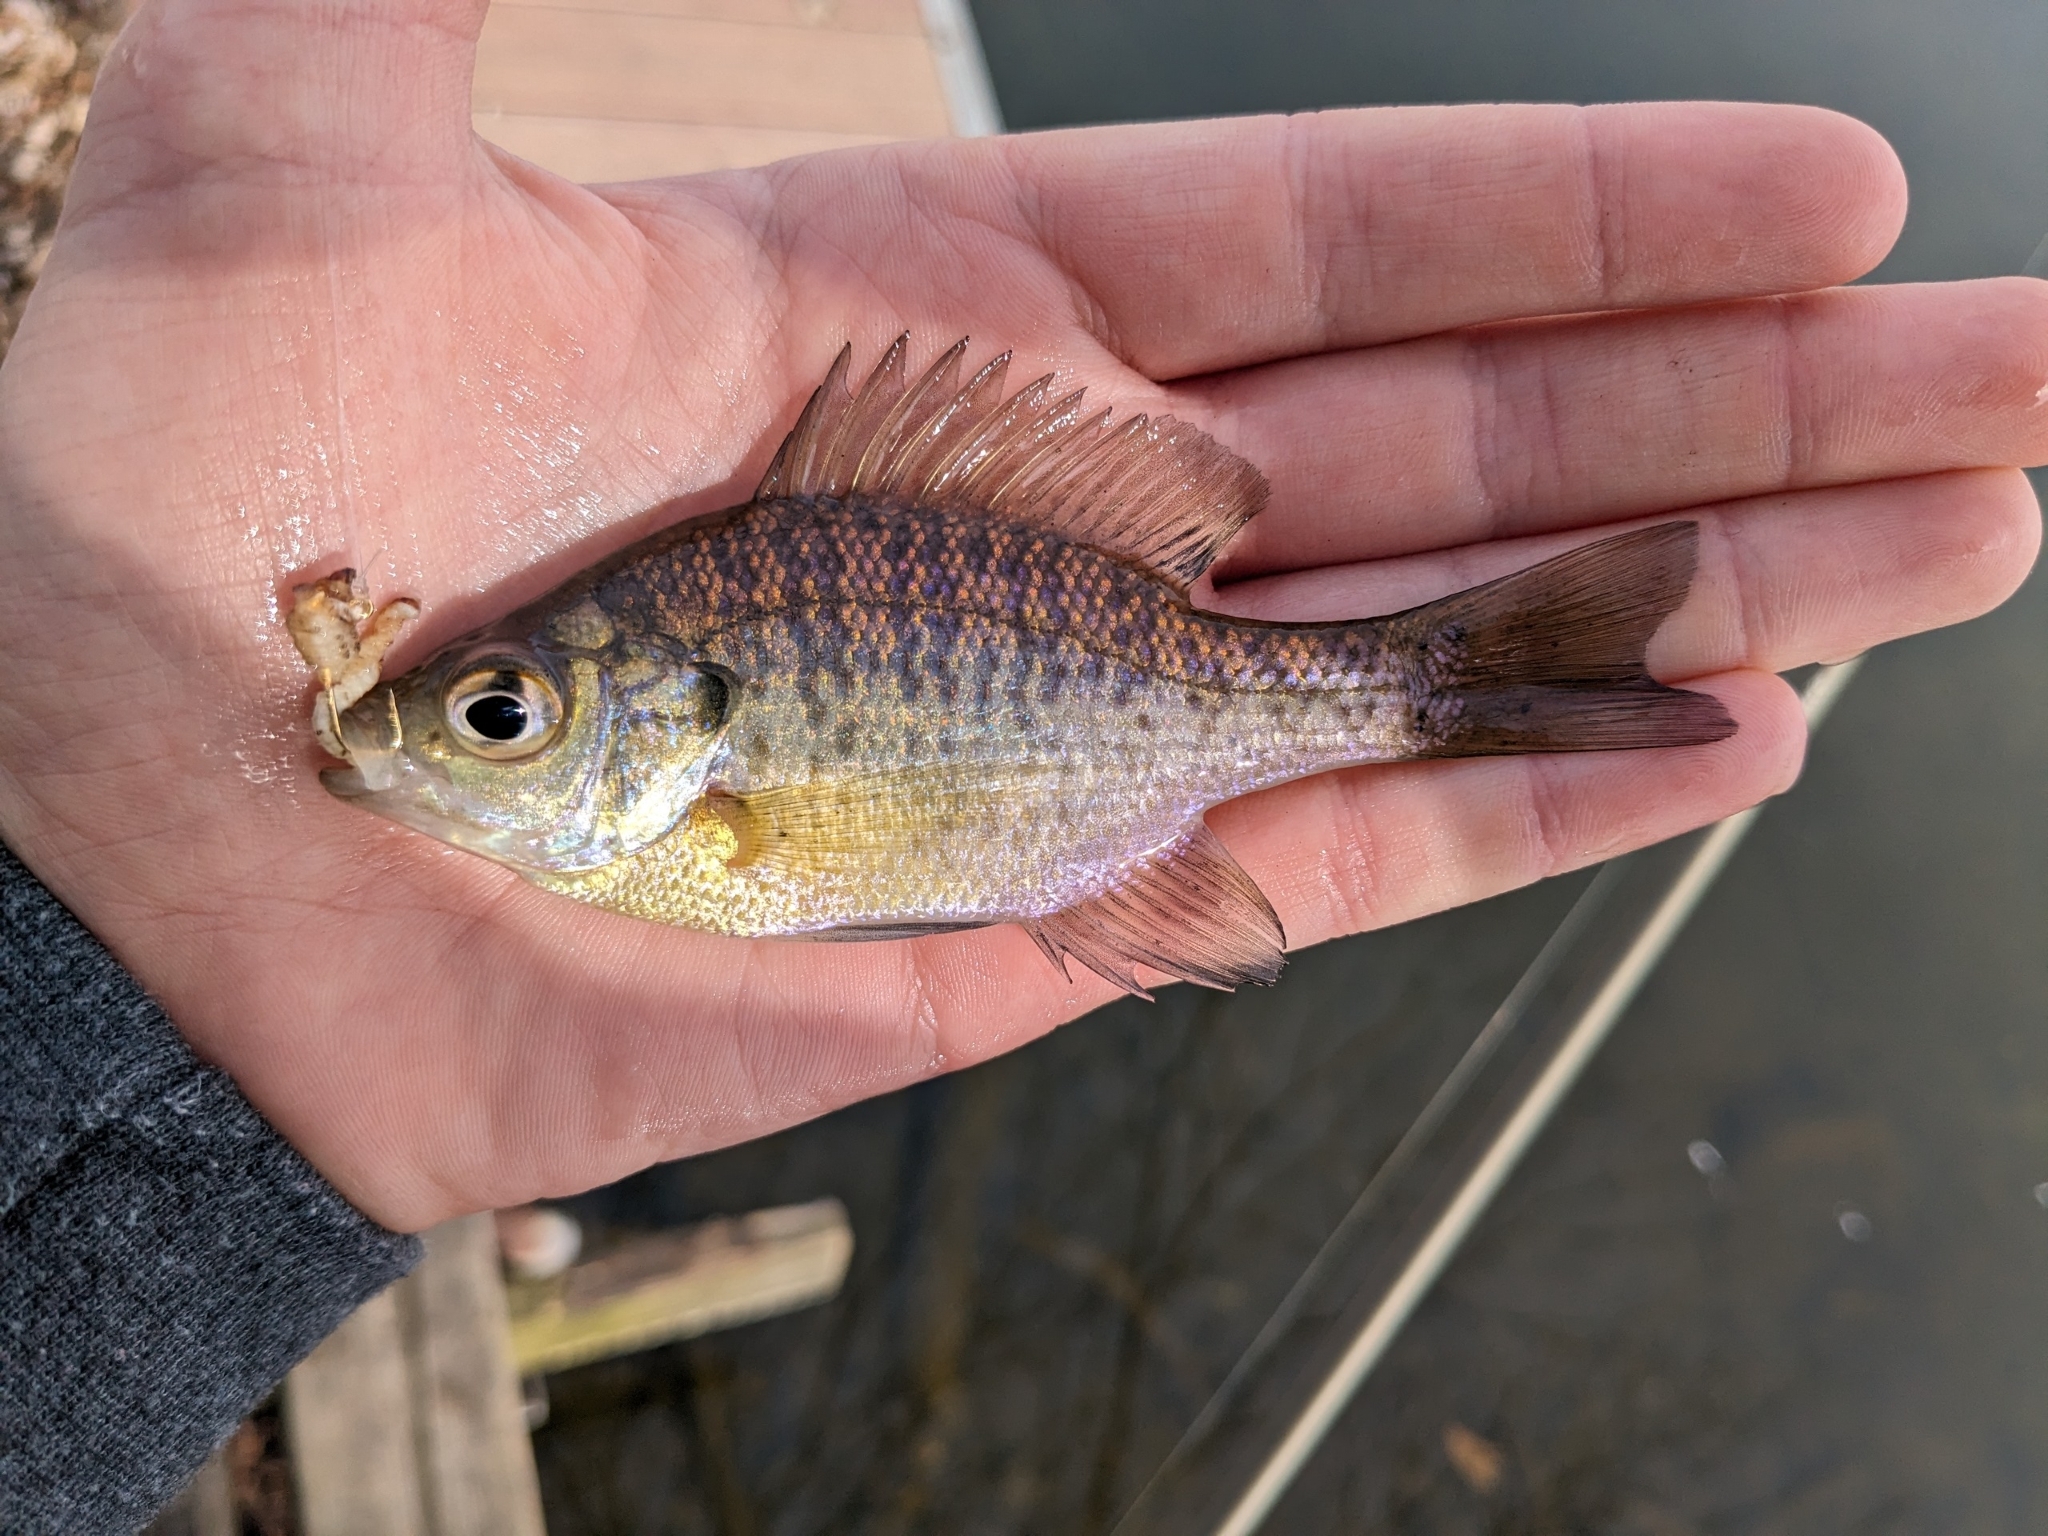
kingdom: Animalia
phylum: Chordata
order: Perciformes
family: Centrarchidae
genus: Lepomis
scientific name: Lepomis macrochirus
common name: Bluegill
